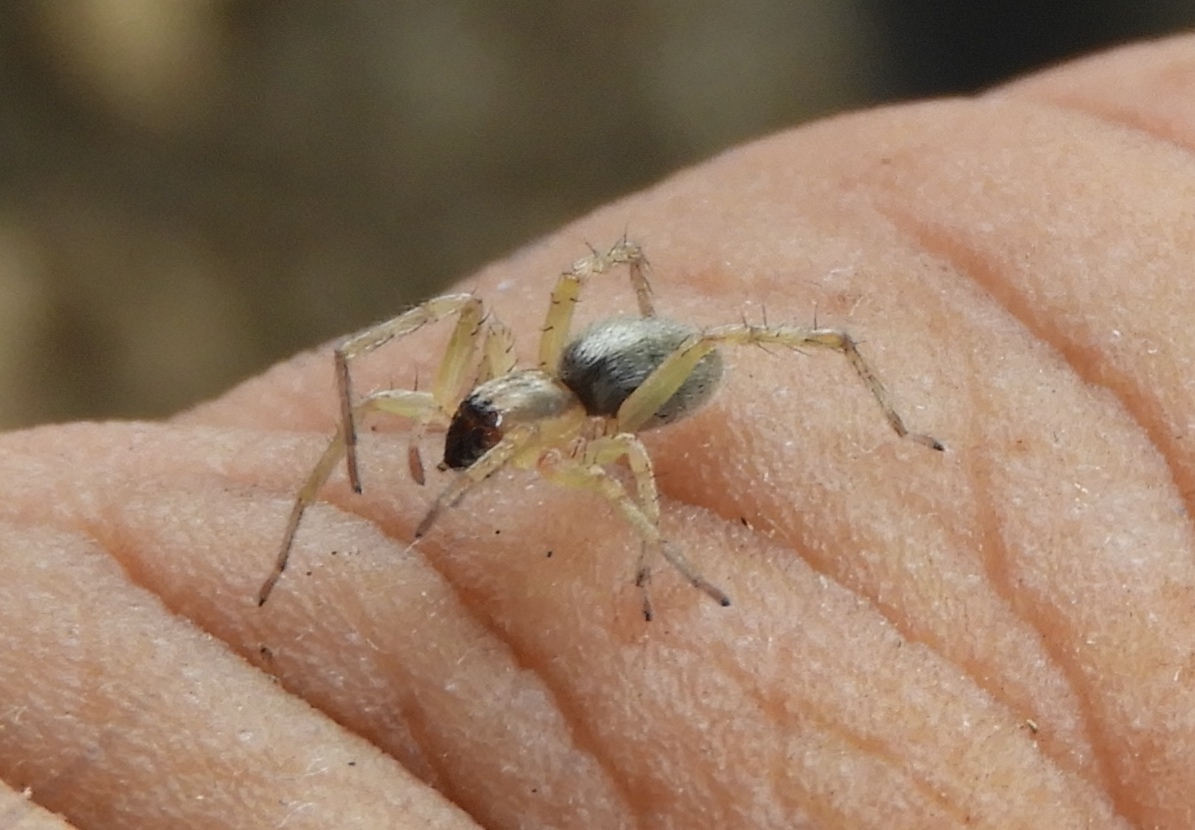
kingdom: Animalia
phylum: Arthropoda
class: Arachnida
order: Araneae
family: Clubionidae
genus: Clubiona
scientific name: Clubiona
